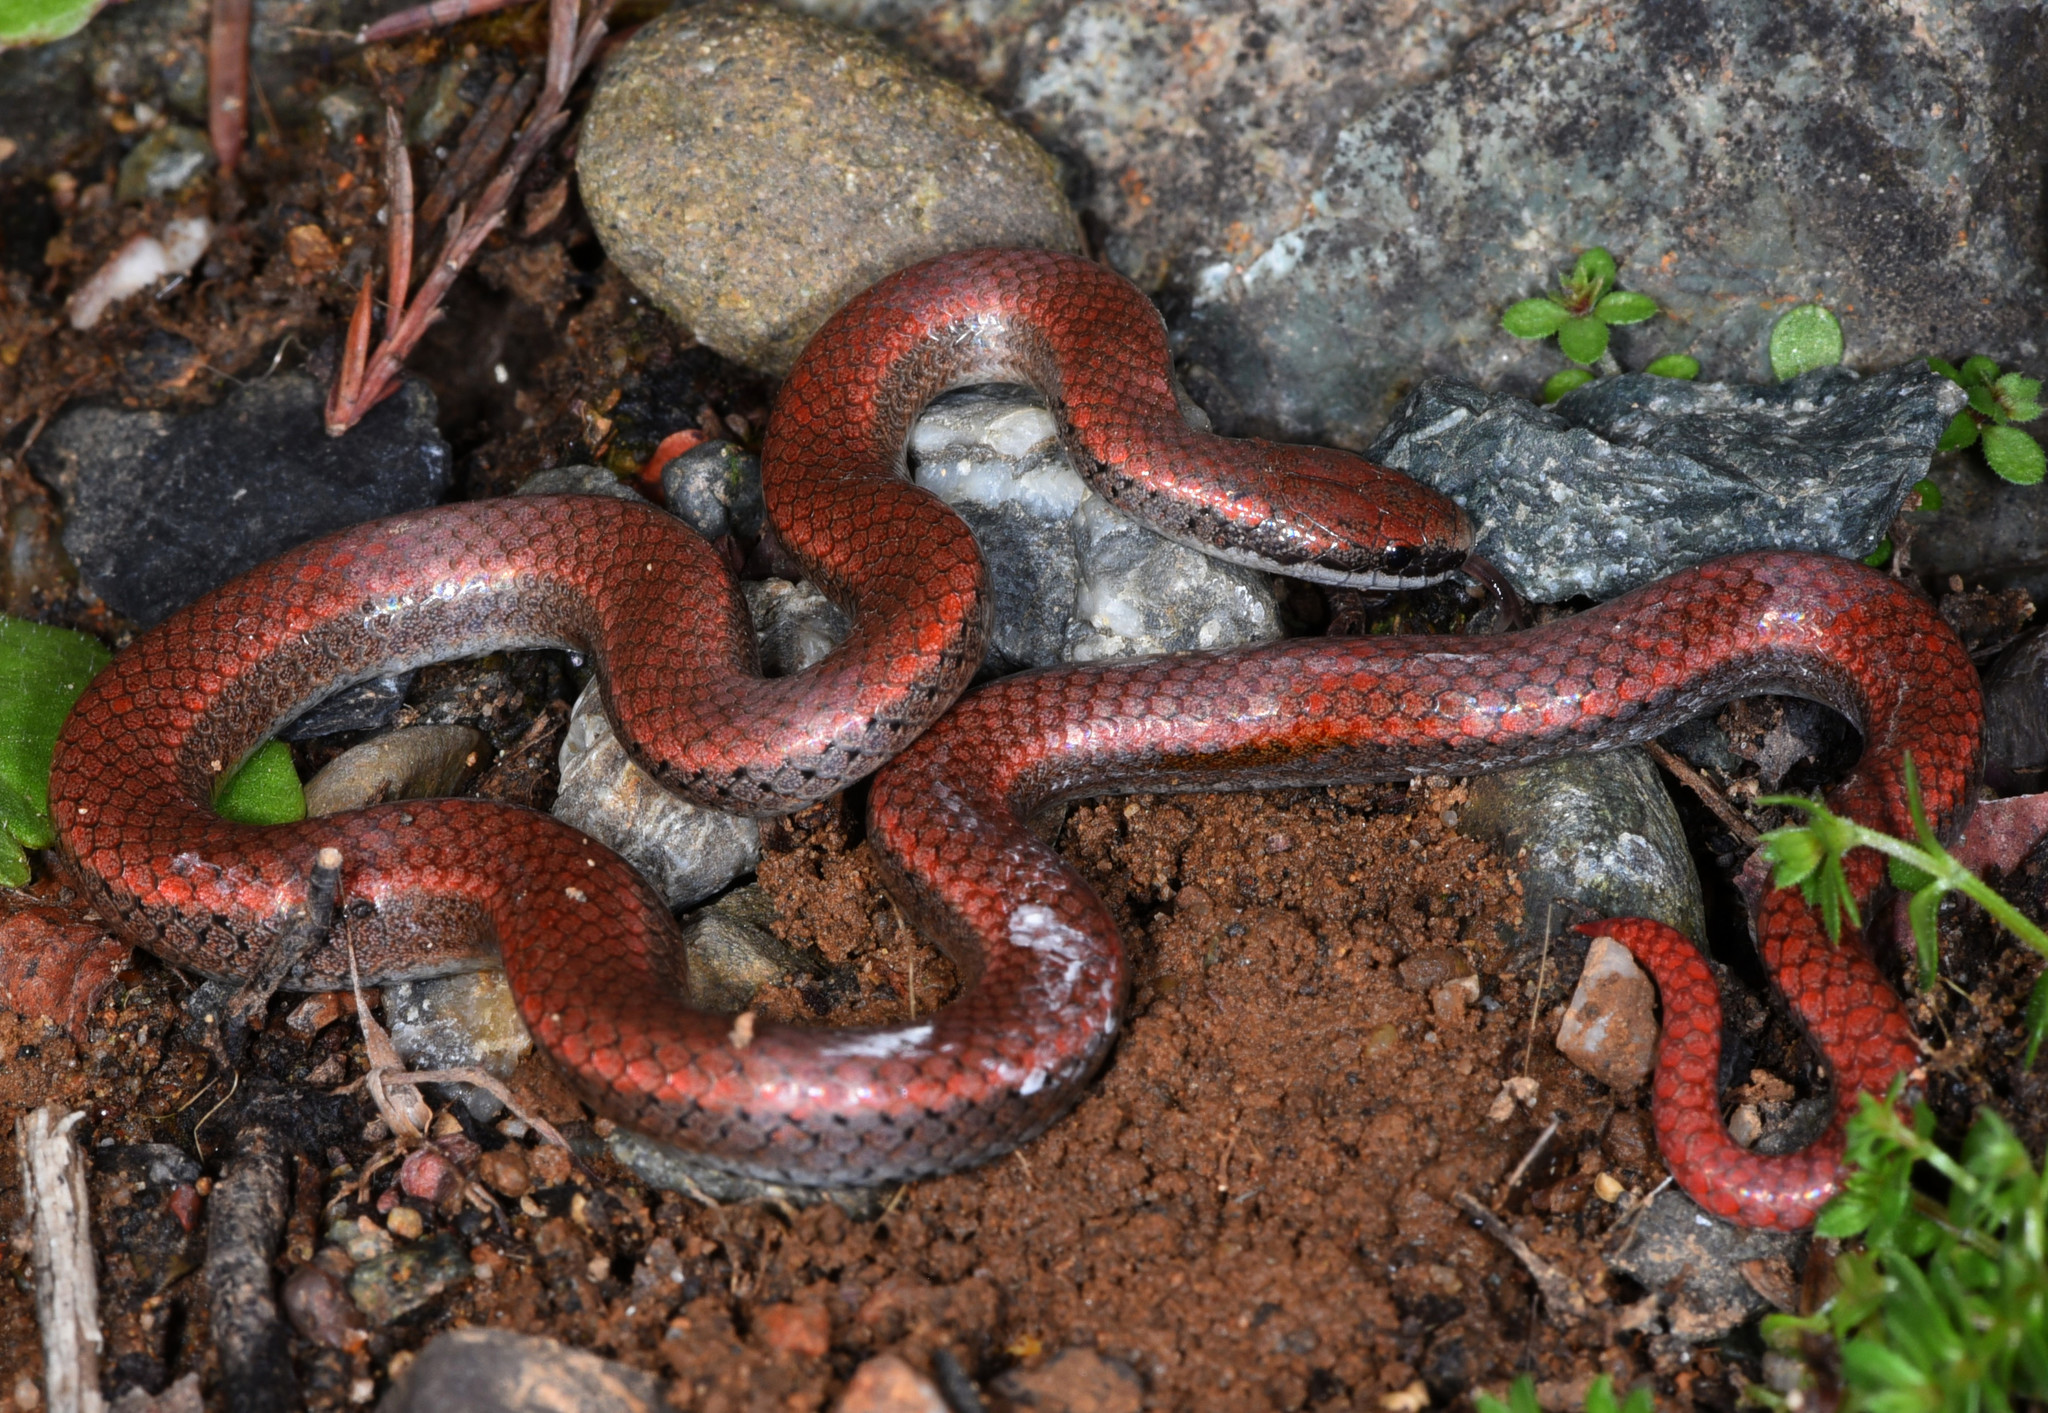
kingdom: Animalia
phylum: Chordata
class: Squamata
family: Colubridae
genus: Contia
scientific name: Contia tenuis
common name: Sharptail snake
